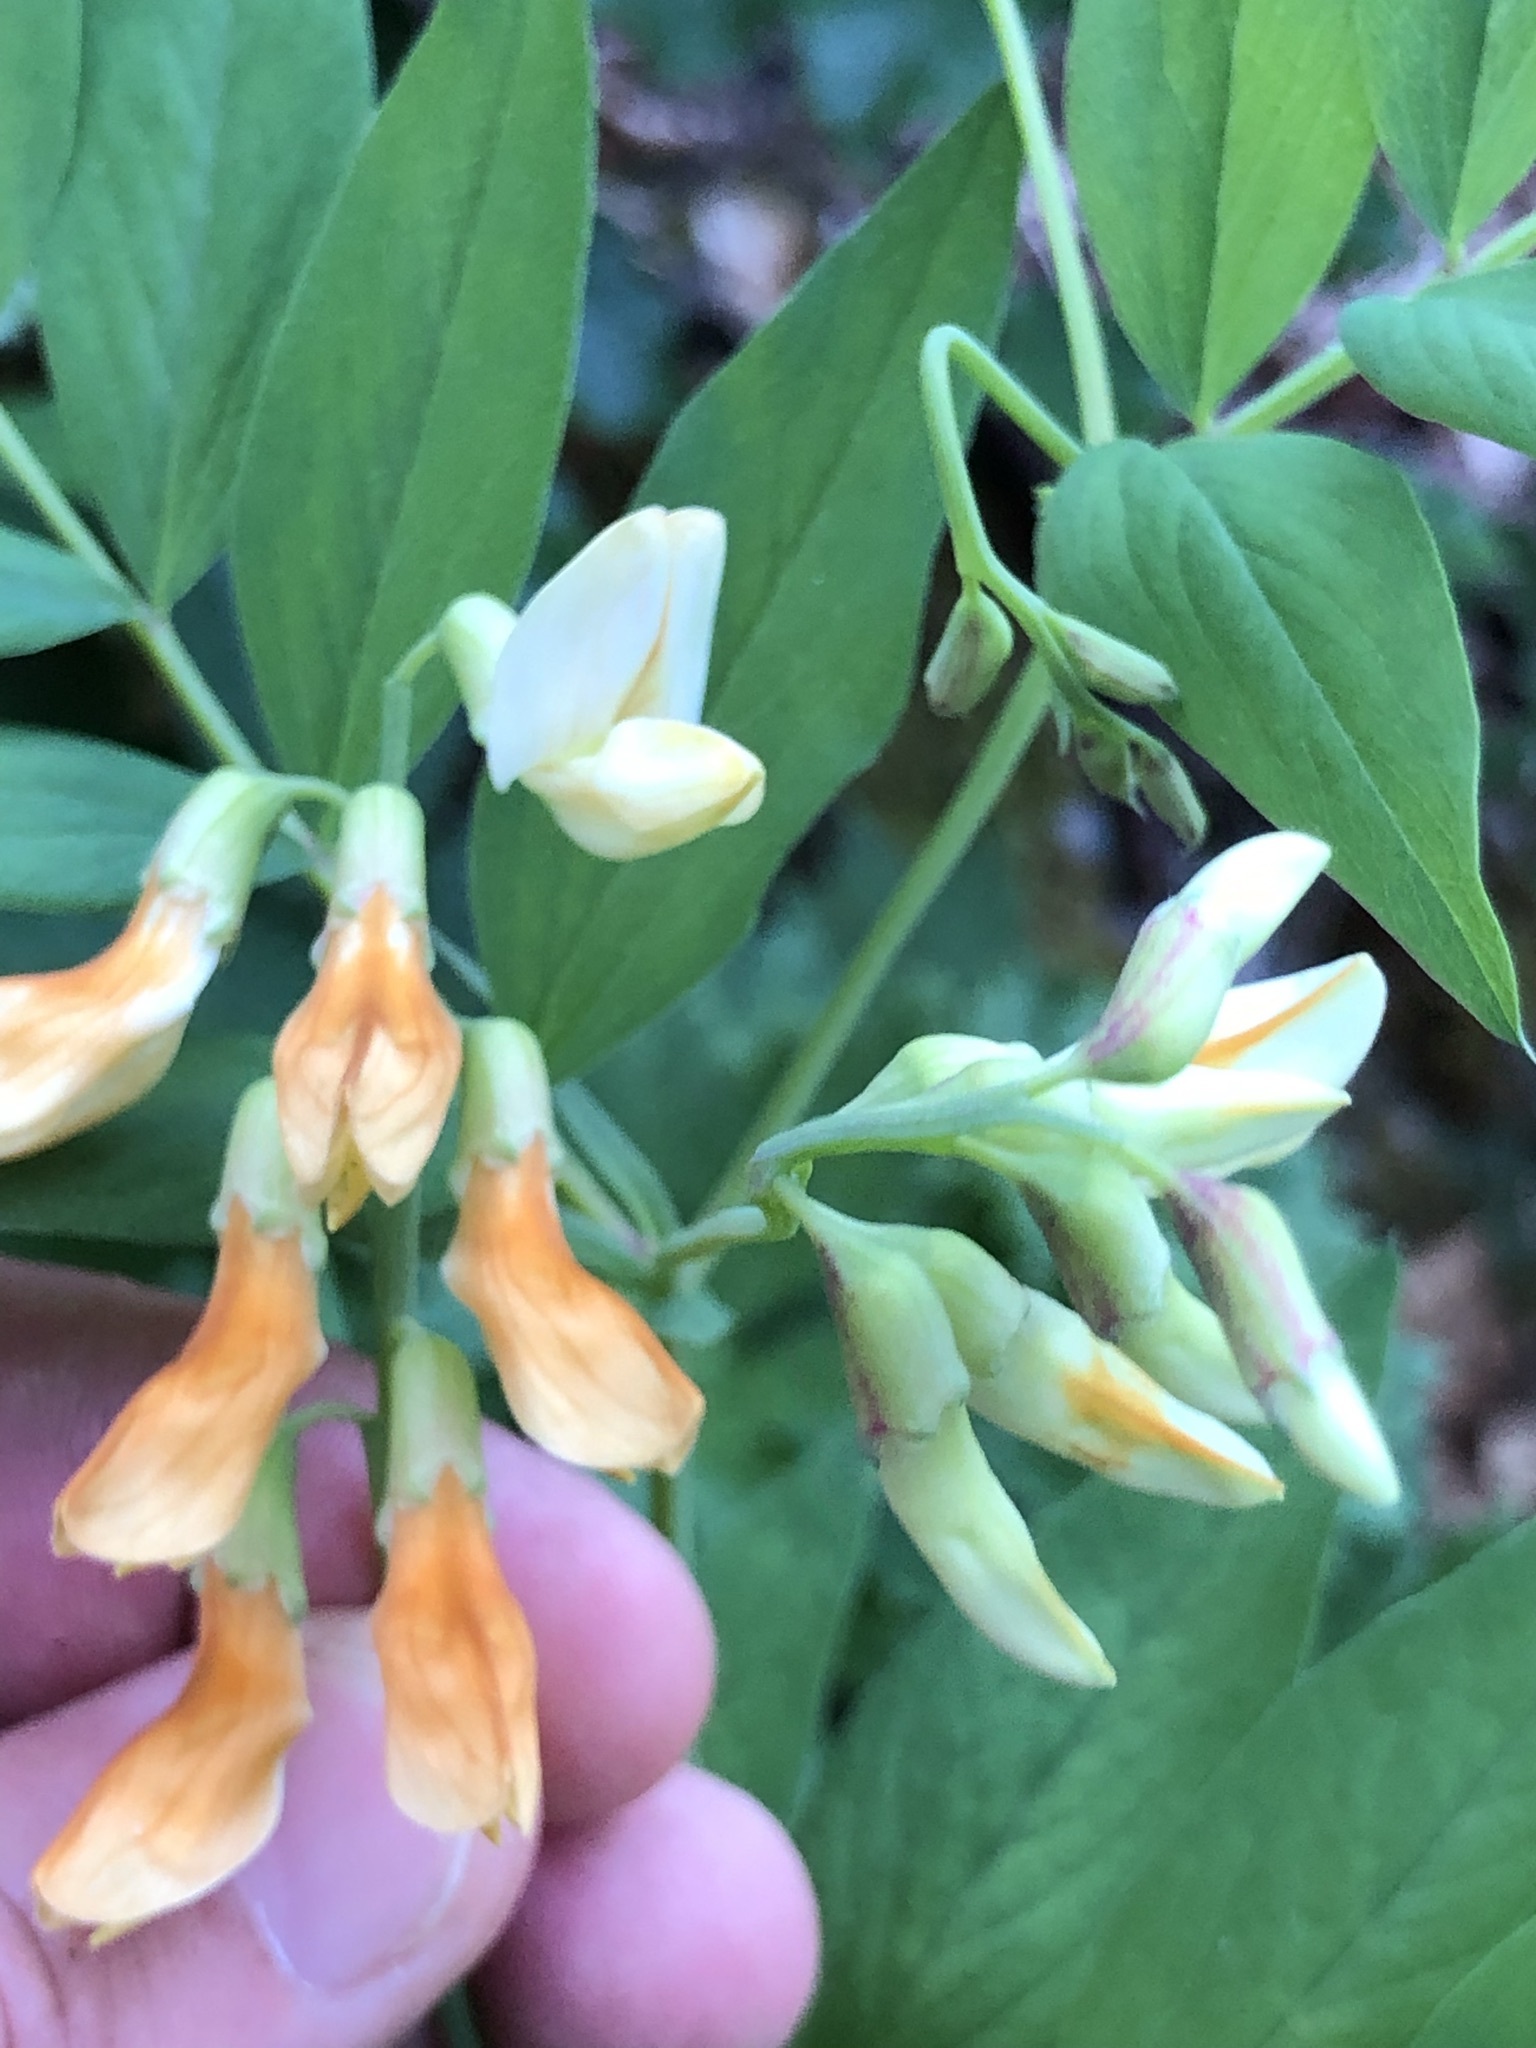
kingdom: Plantae
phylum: Tracheophyta
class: Magnoliopsida
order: Fabales
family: Fabaceae
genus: Lathyrus
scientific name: Lathyrus laevigatus
